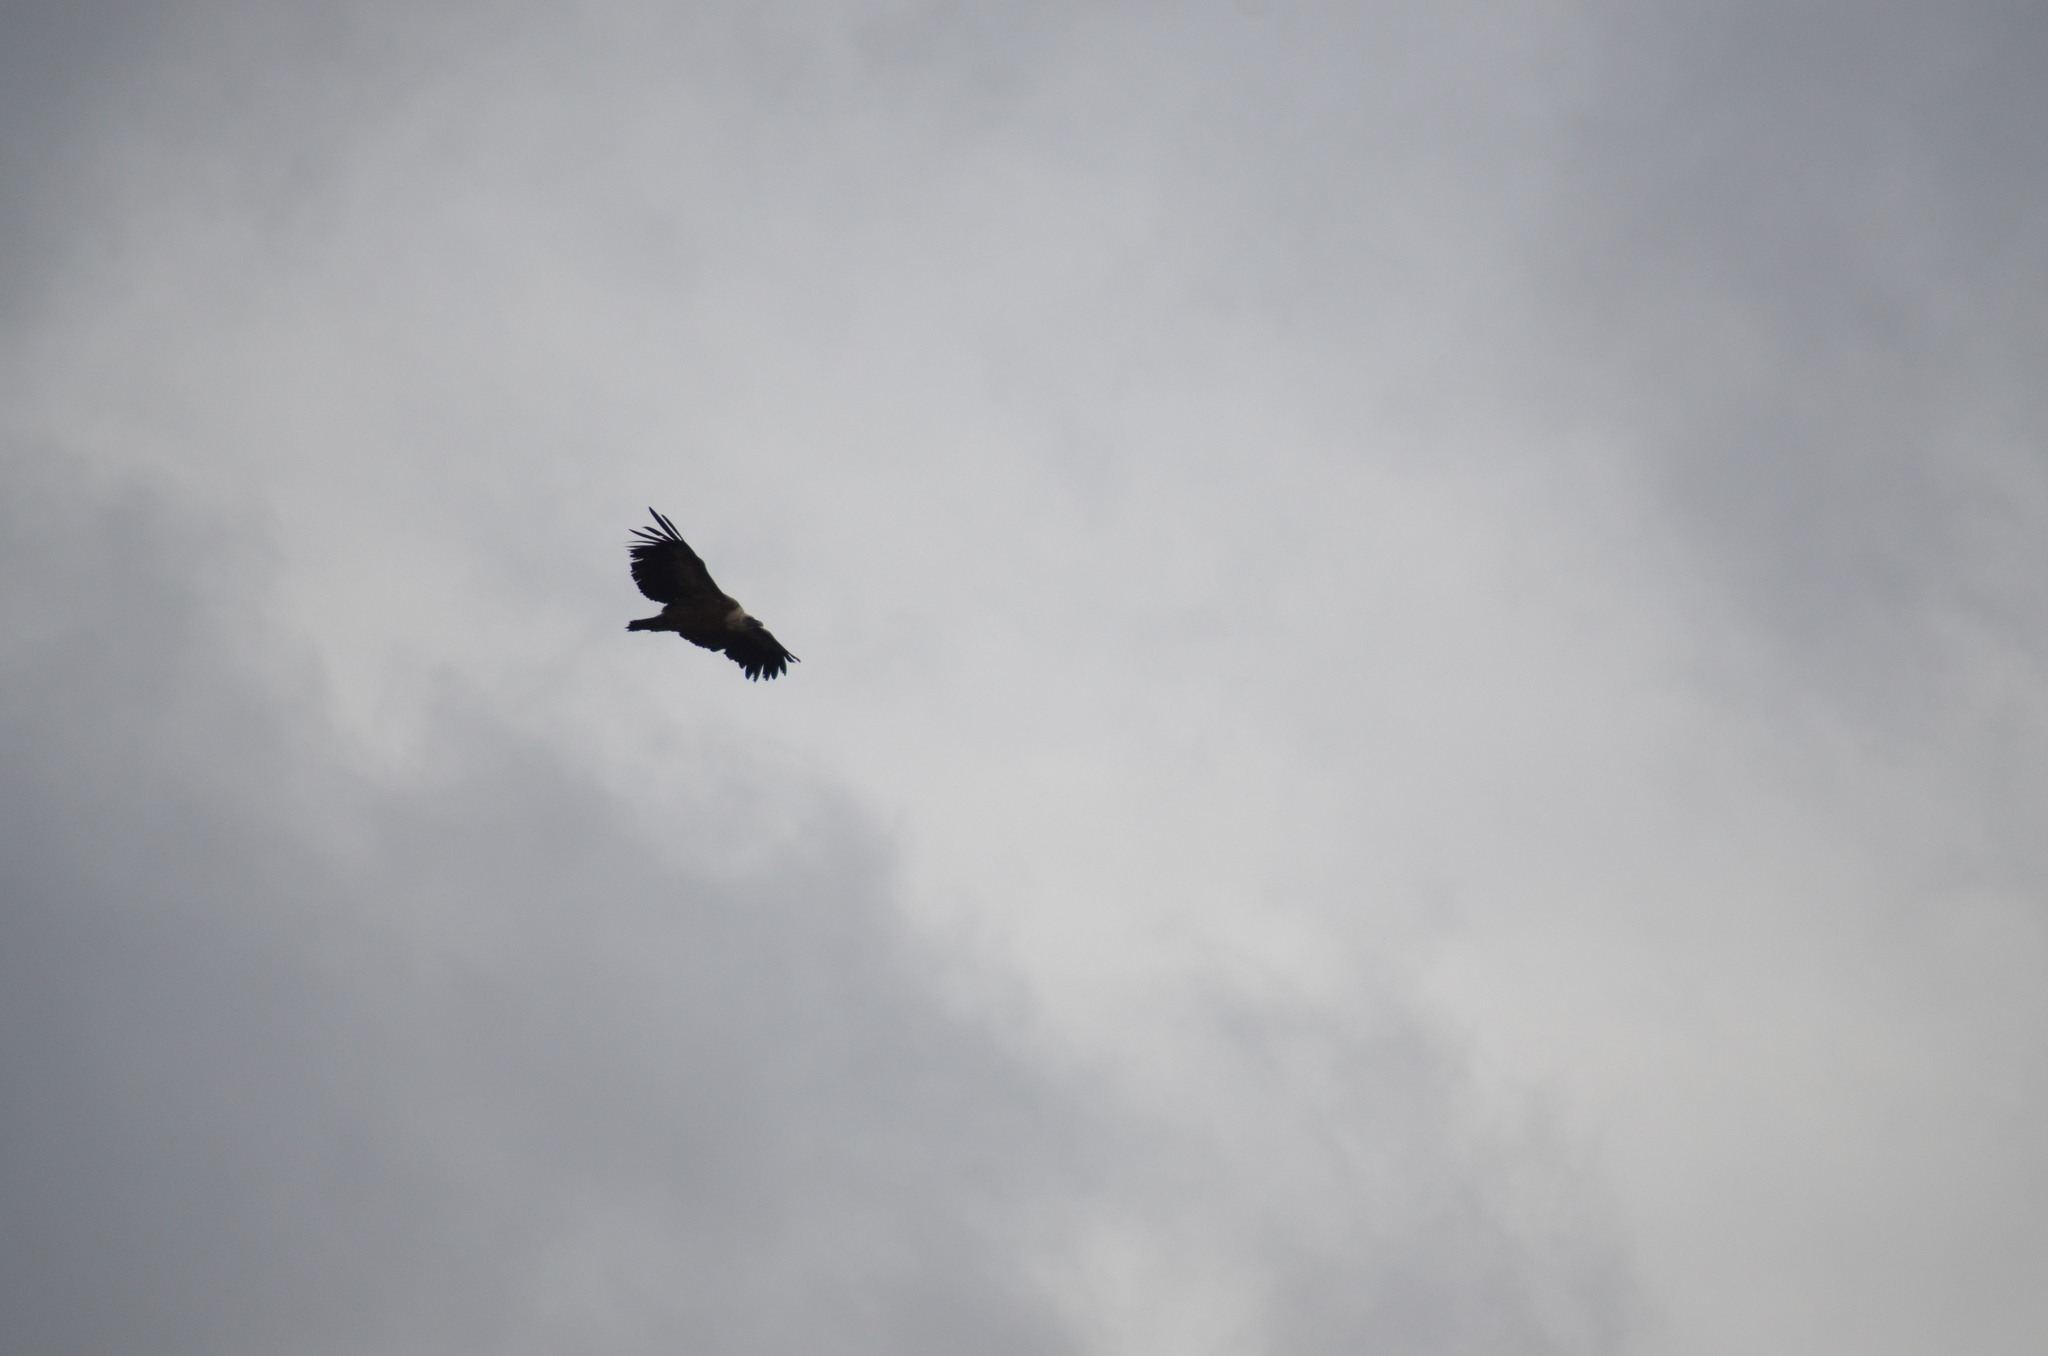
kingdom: Animalia
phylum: Chordata
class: Aves
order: Accipitriformes
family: Accipitridae
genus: Gyps
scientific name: Gyps fulvus
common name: Griffon vulture
